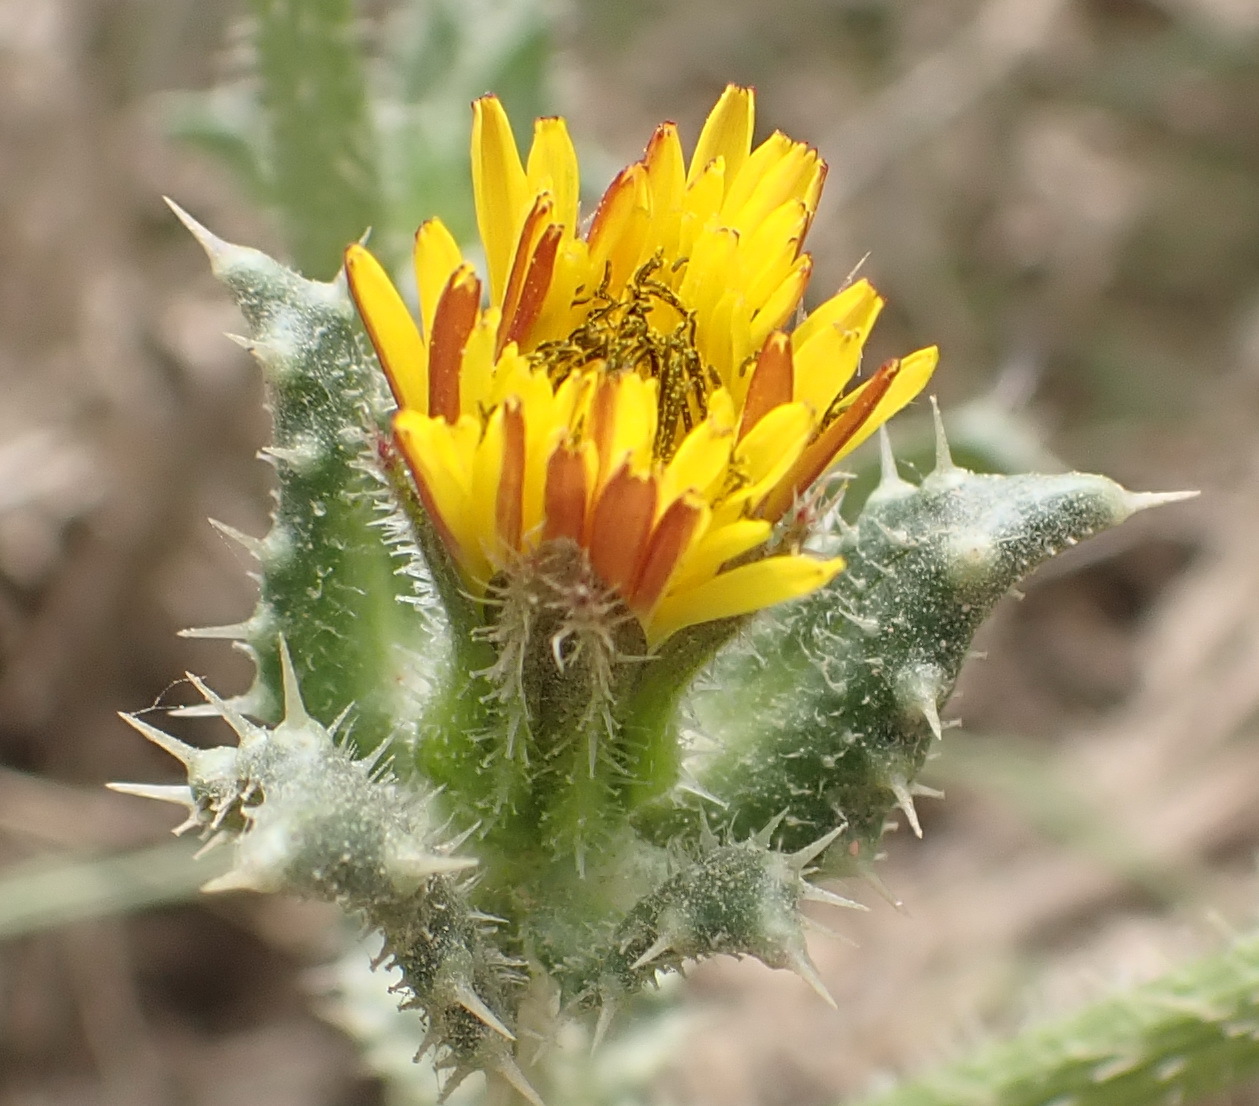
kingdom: Plantae
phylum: Tracheophyta
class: Magnoliopsida
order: Asterales
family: Asteraceae
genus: Helminthotheca
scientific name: Helminthotheca echioides
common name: Ox-tongue
